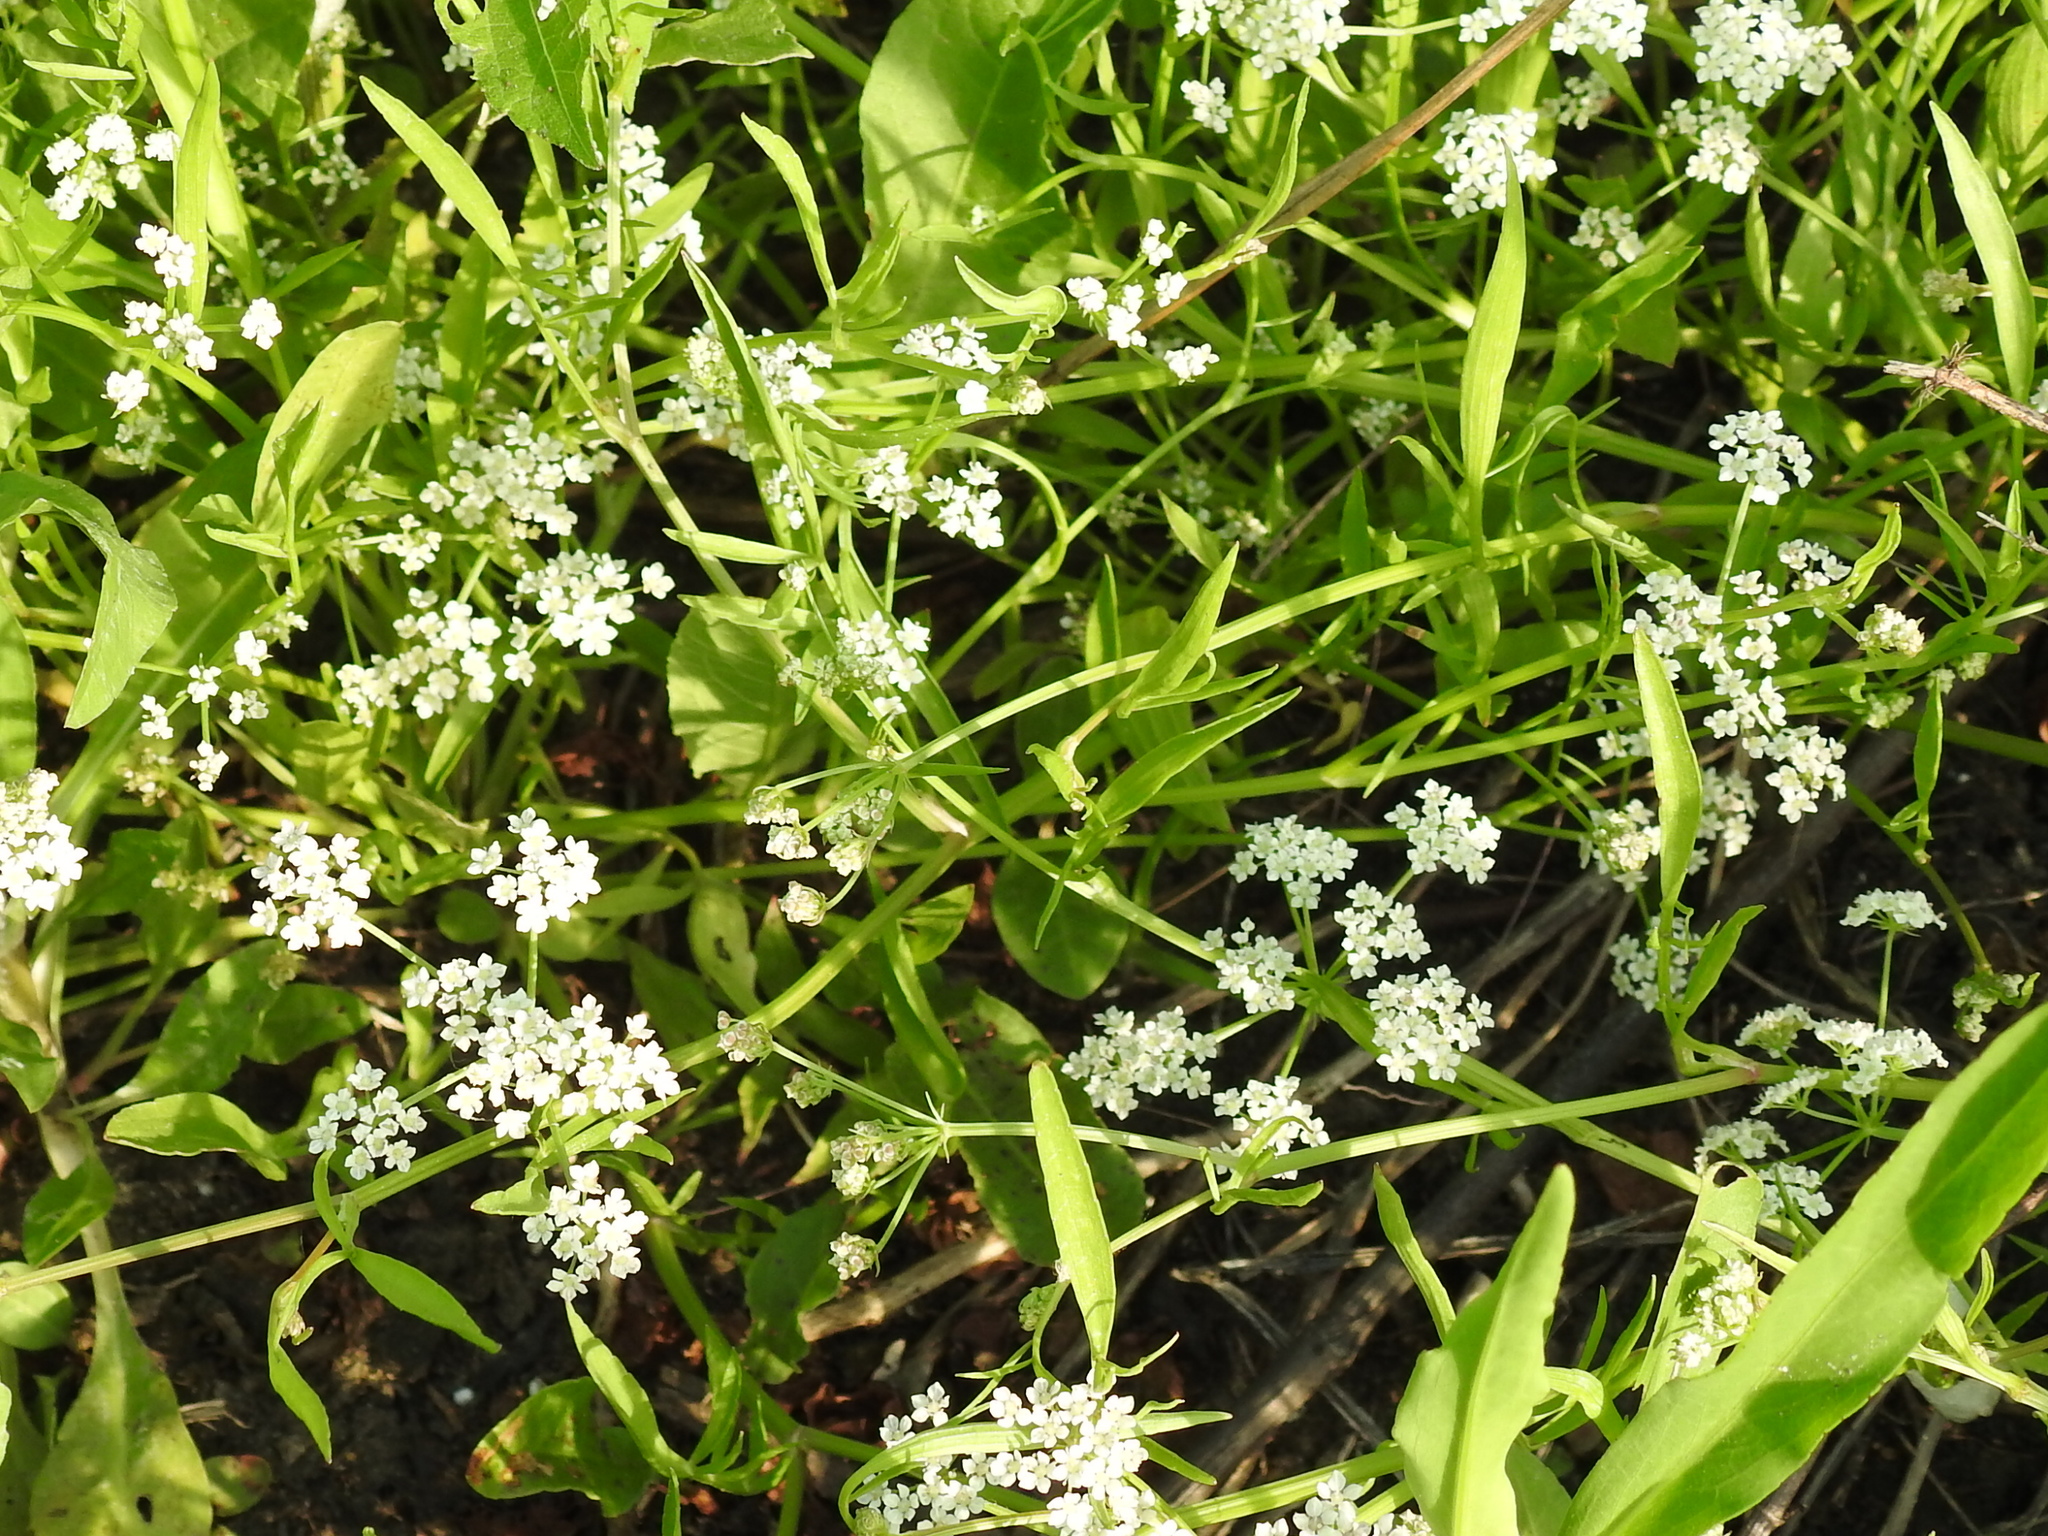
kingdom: Plantae
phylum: Tracheophyta
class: Magnoliopsida
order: Apiales
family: Apiaceae
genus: Limnosciadium
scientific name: Limnosciadium pinnatum
